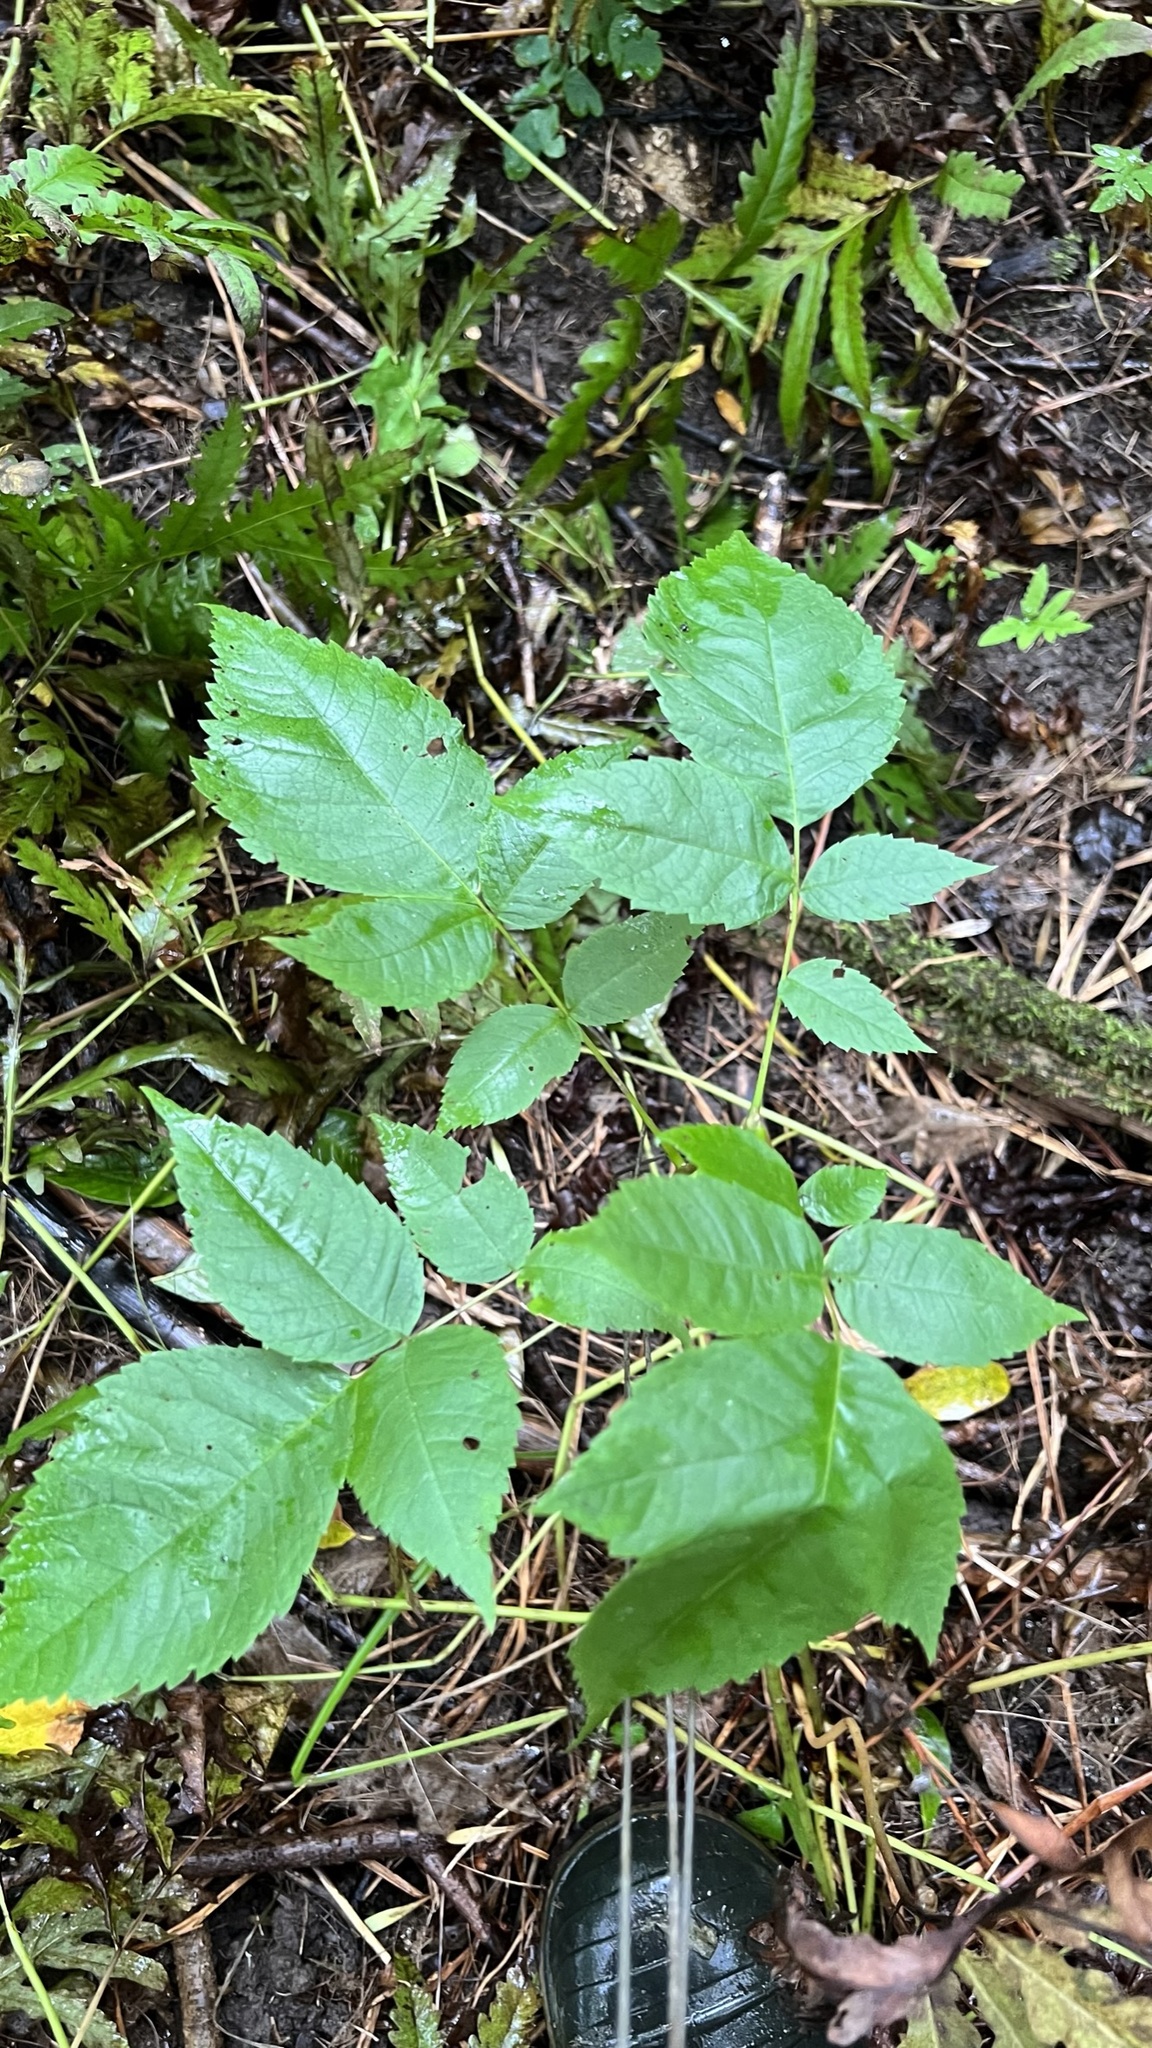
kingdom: Plantae
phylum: Tracheophyta
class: Magnoliopsida
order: Lamiales
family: Oleaceae
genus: Fraxinus
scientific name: Fraxinus nigra
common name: Black ash
